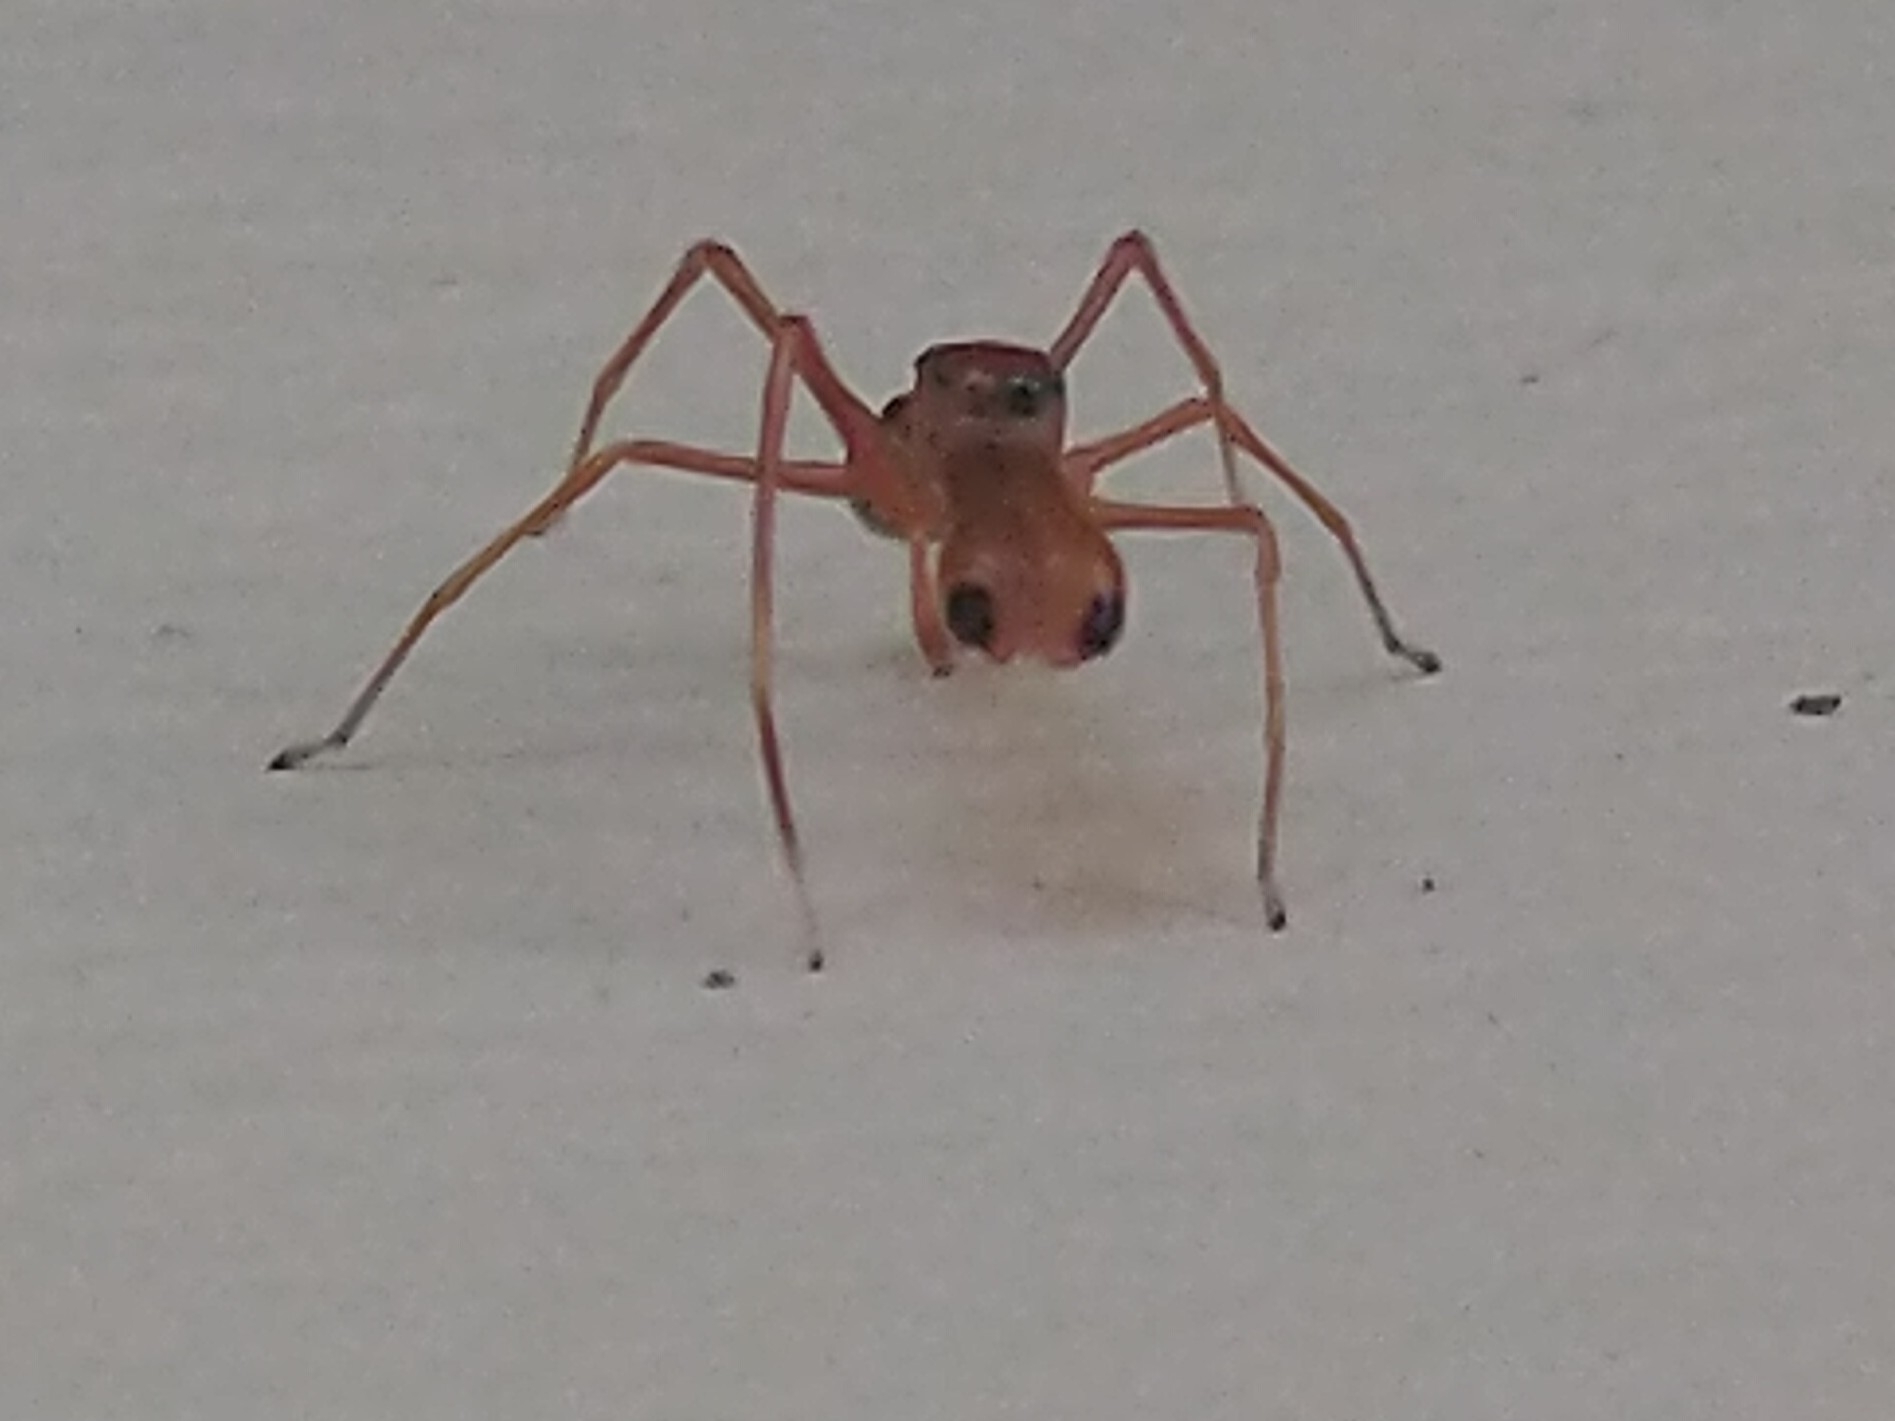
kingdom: Animalia
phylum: Arthropoda
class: Arachnida
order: Araneae
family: Salticidae
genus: Myrmaplata
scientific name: Myrmaplata plataleoides
